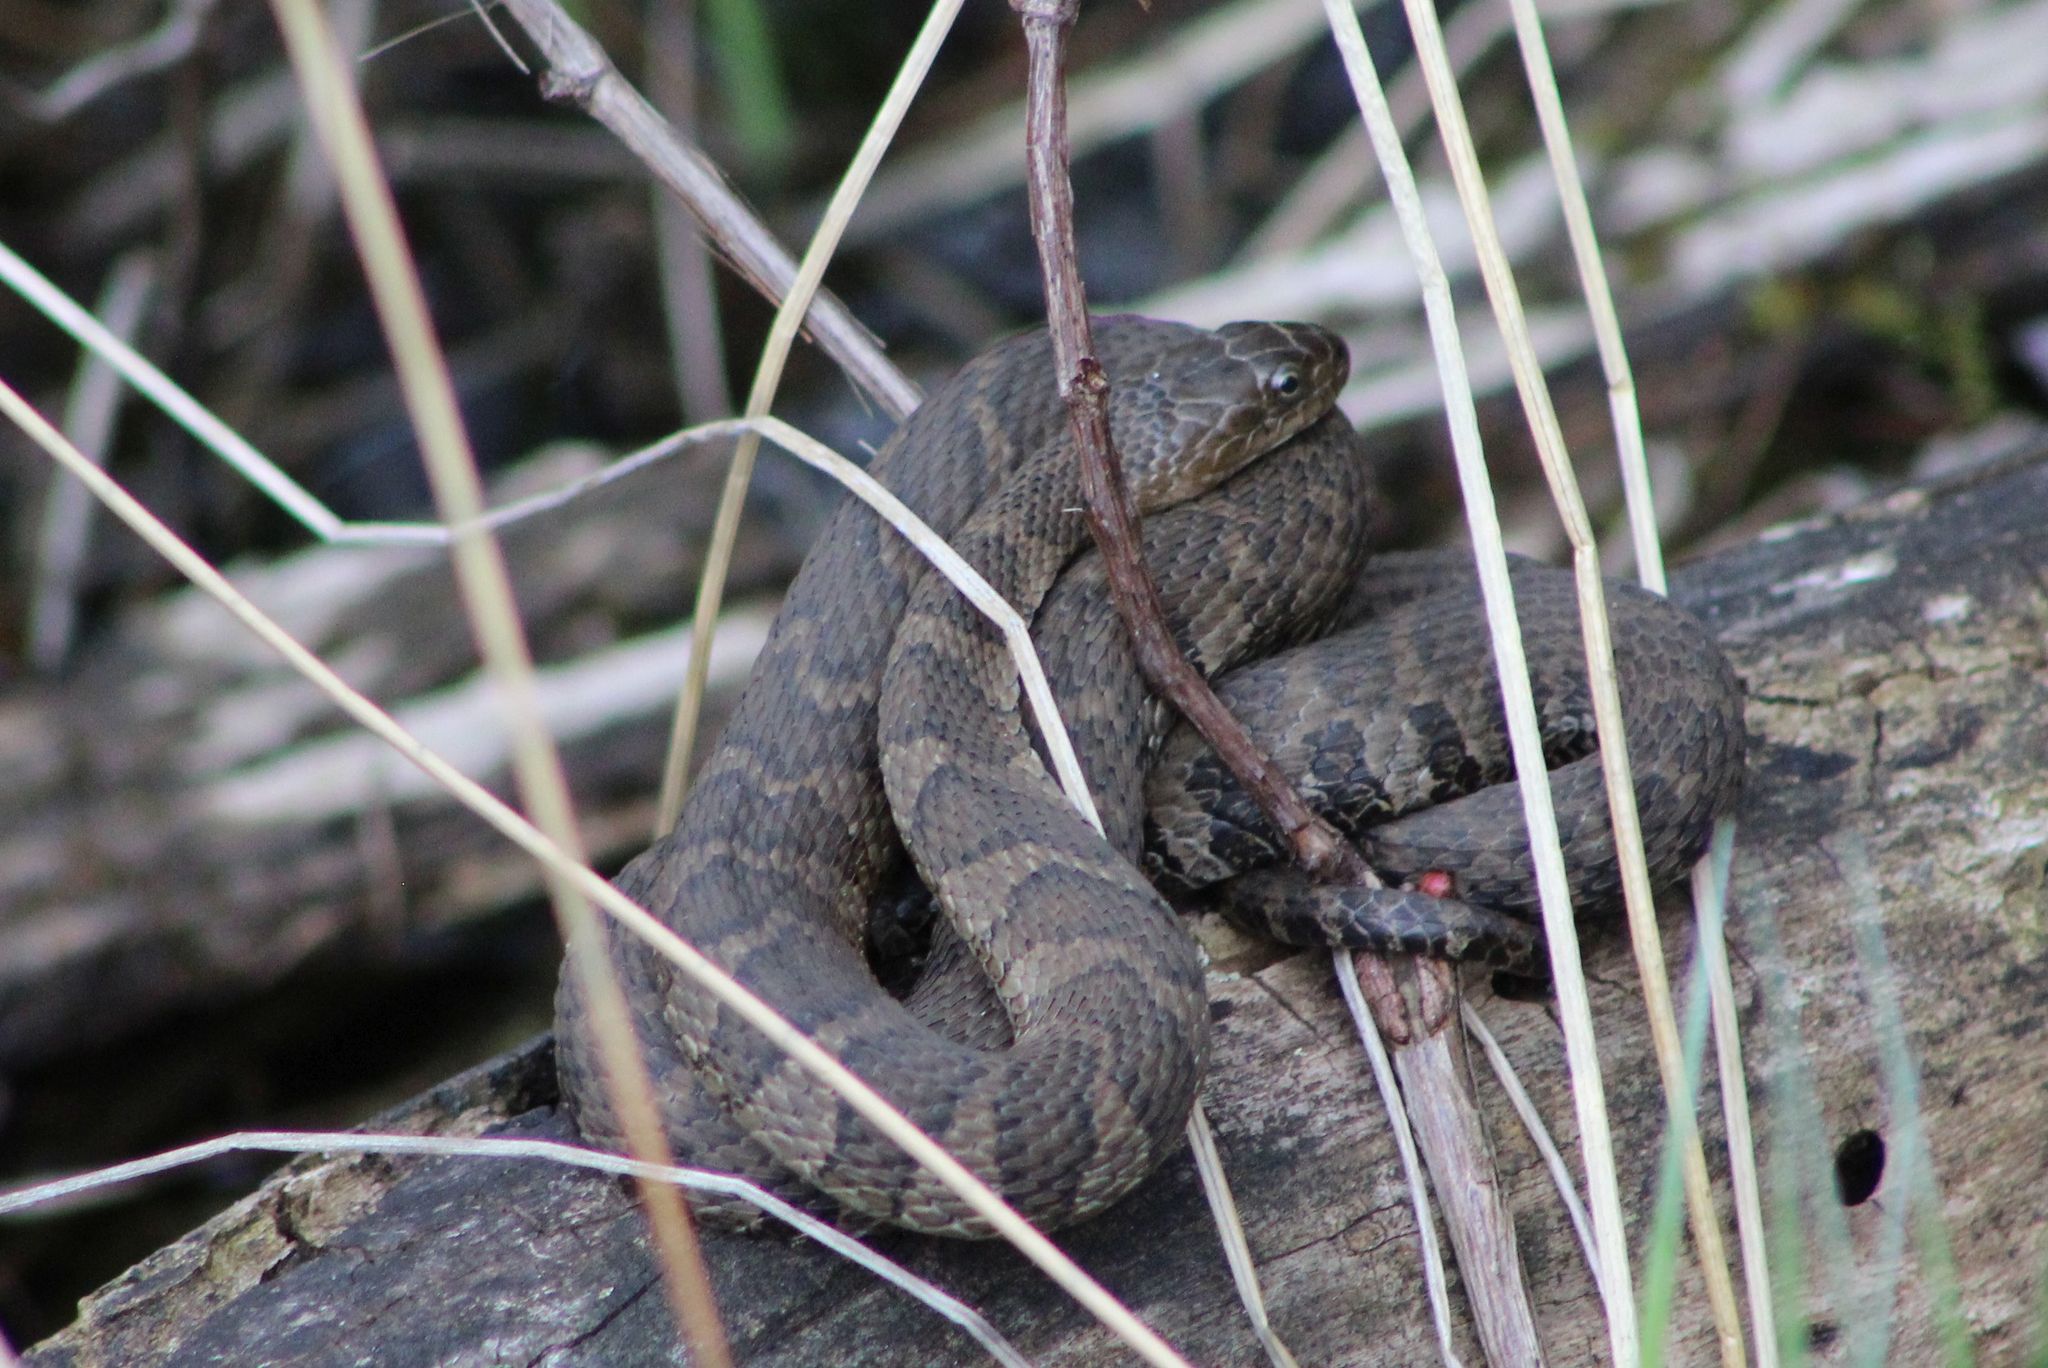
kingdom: Animalia
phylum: Chordata
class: Squamata
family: Colubridae
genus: Nerodia
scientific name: Nerodia sipedon
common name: Northern water snake
